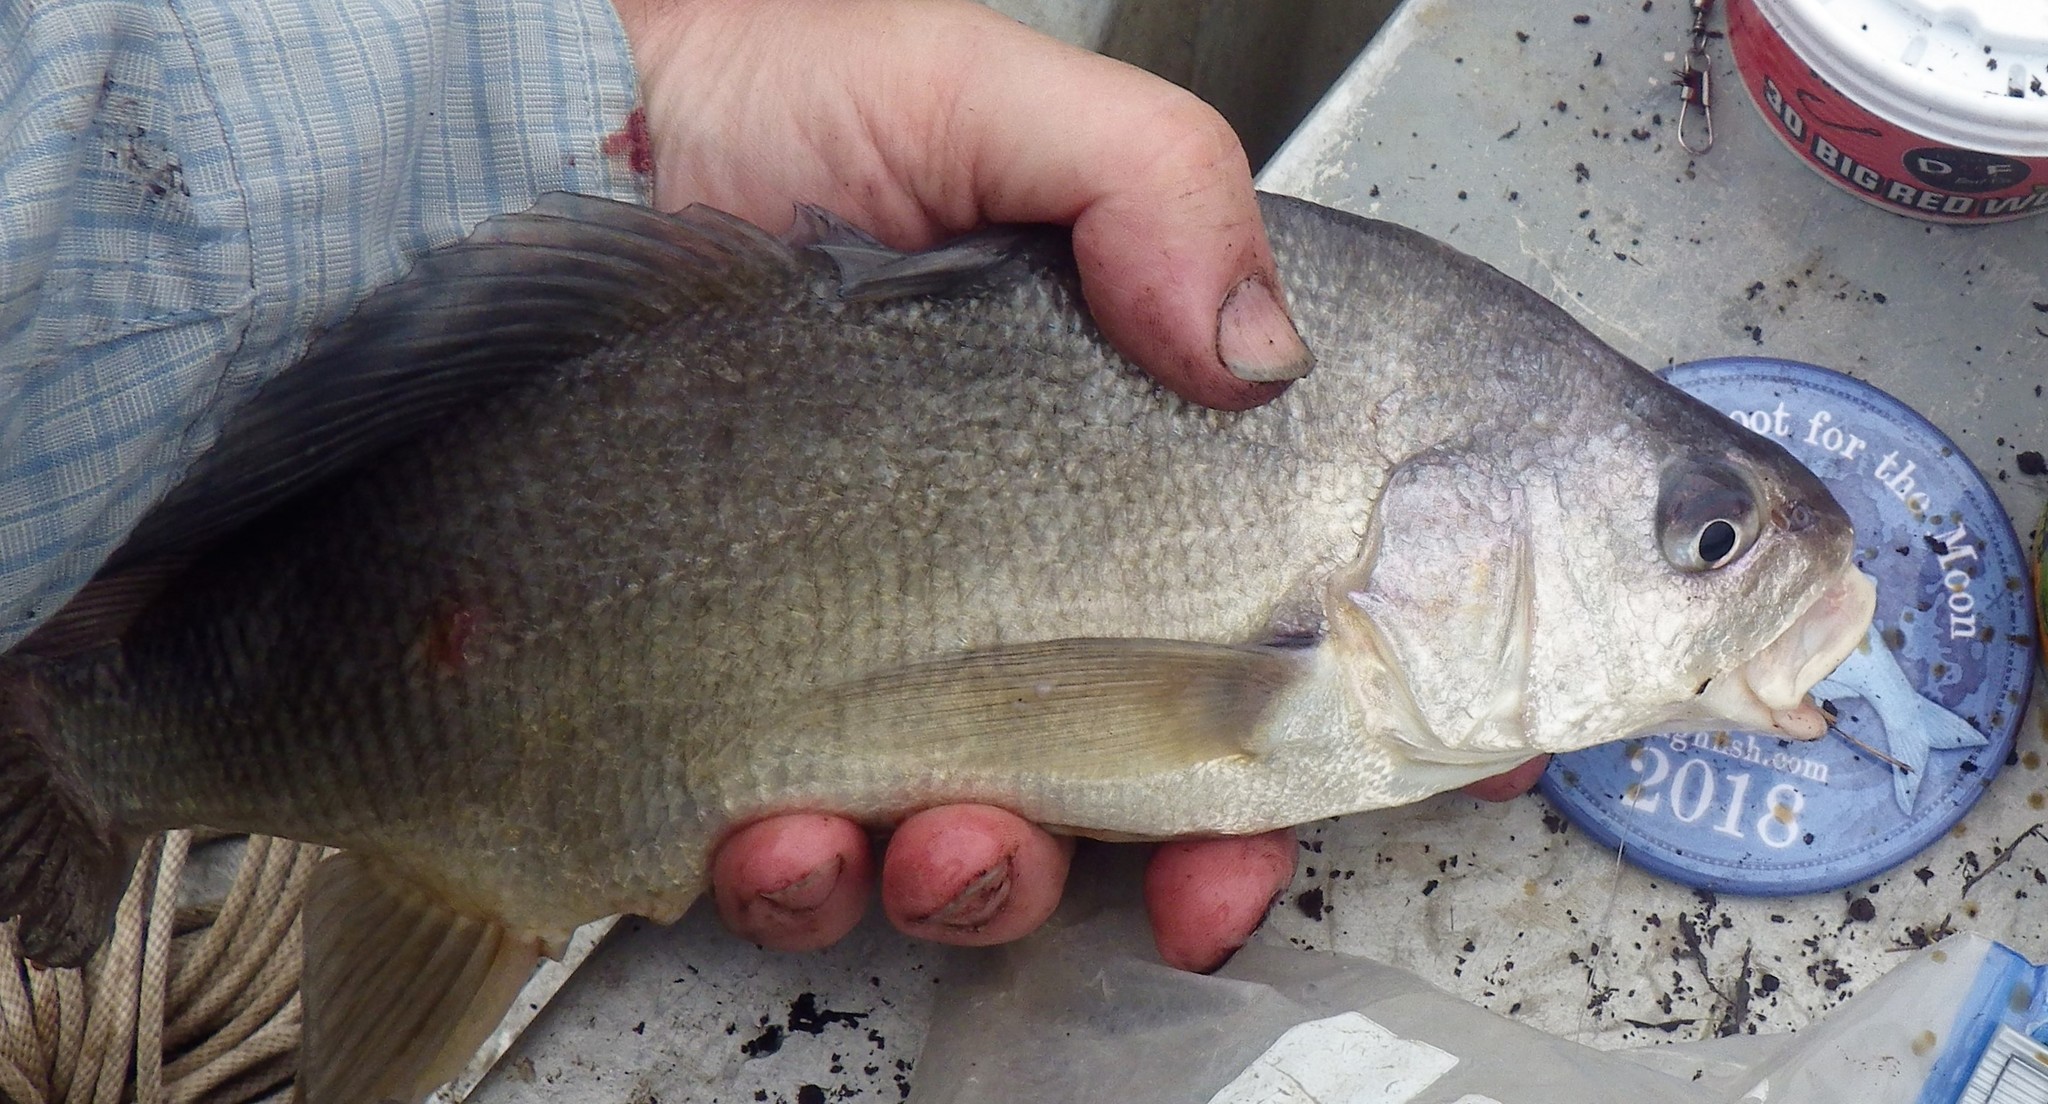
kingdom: Animalia
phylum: Chordata
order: Perciformes
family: Sciaenidae
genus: Aplodinotus
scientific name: Aplodinotus grunniens
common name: Freshwater drum
